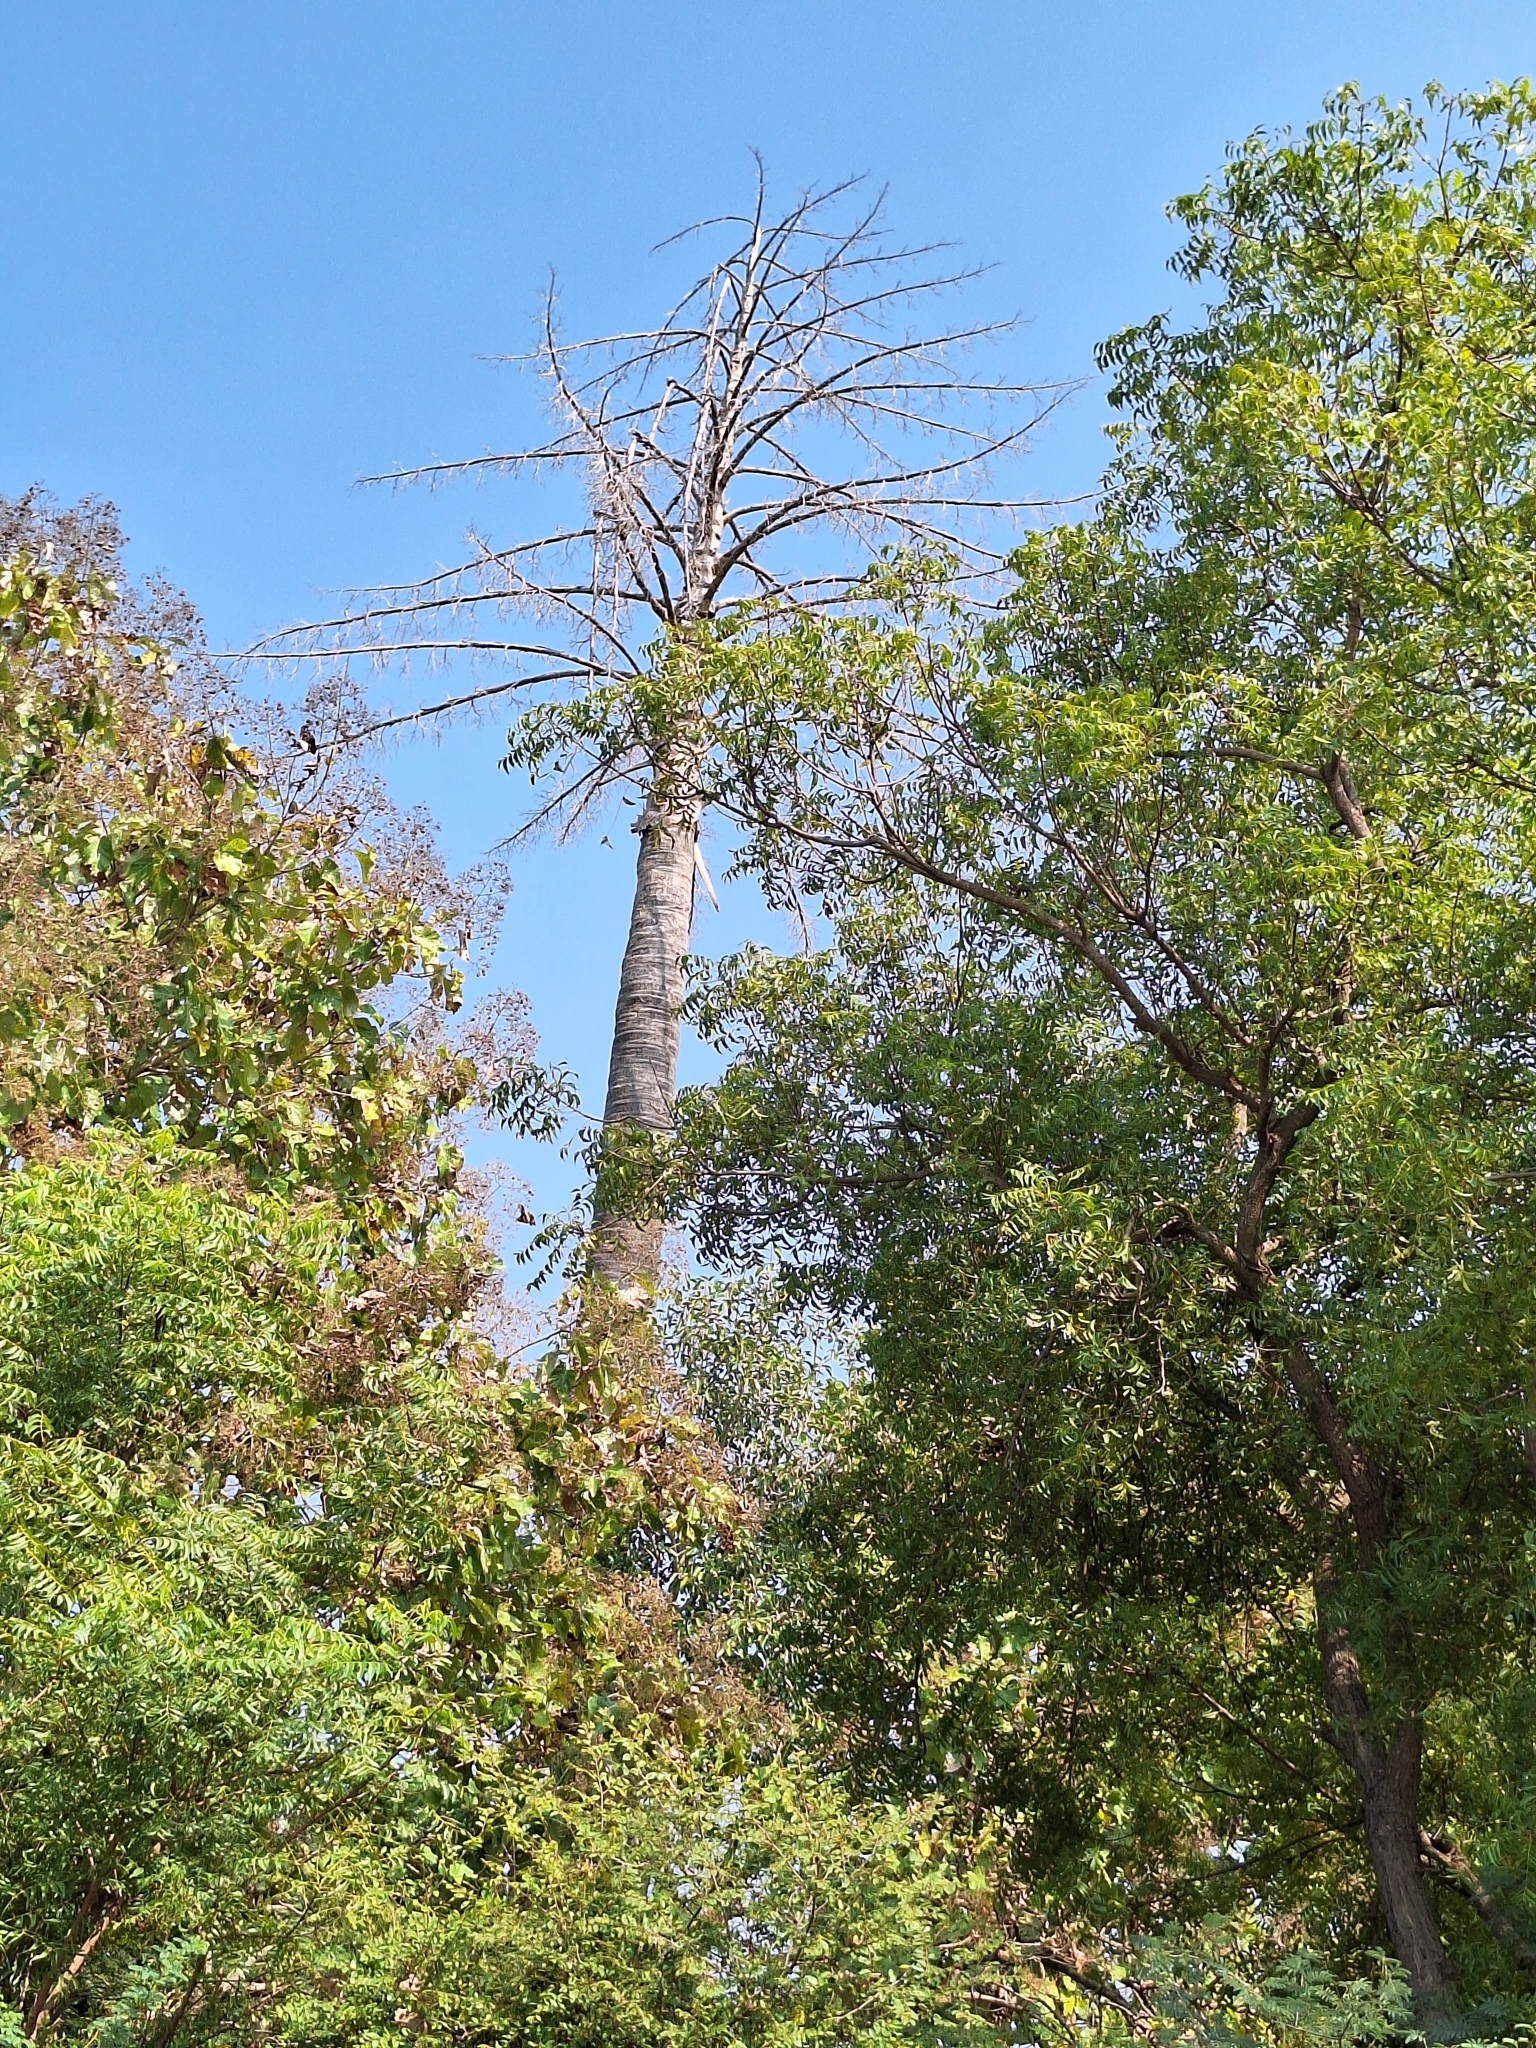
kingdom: Plantae
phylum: Tracheophyta
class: Liliopsida
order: Arecales
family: Arecaceae
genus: Corypha
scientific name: Corypha umbraculifera
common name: Talipot palm
